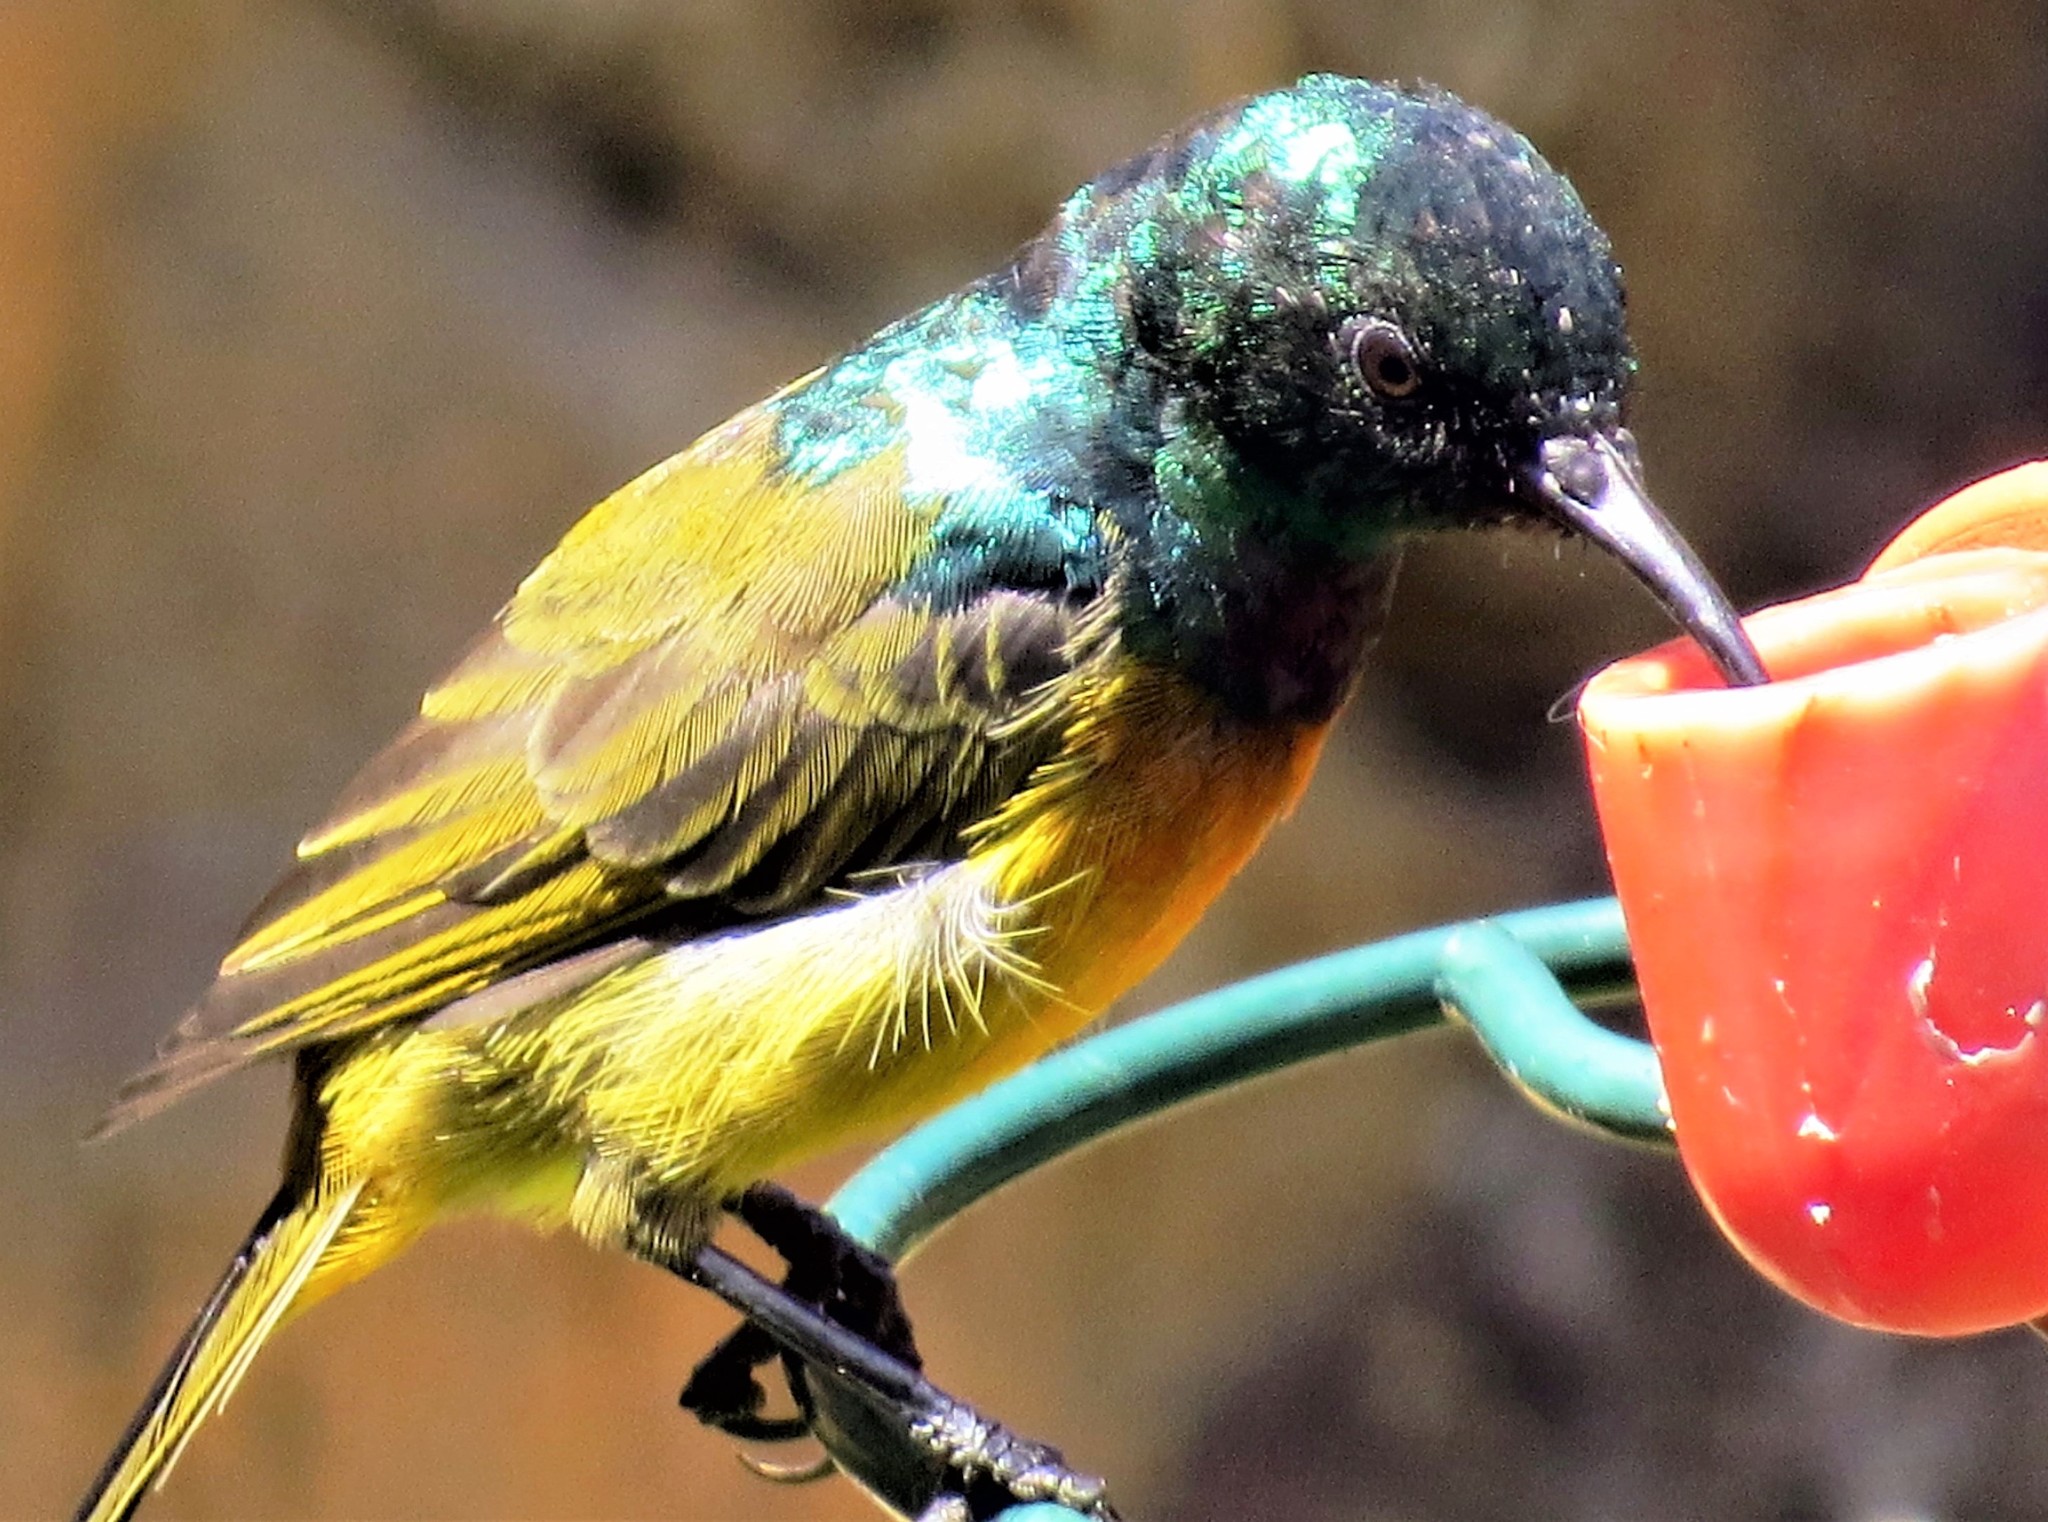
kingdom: Animalia
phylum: Chordata
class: Aves
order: Passeriformes
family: Nectariniidae
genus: Anthobaphes
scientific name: Anthobaphes violacea
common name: Orange-breasted sunbird
